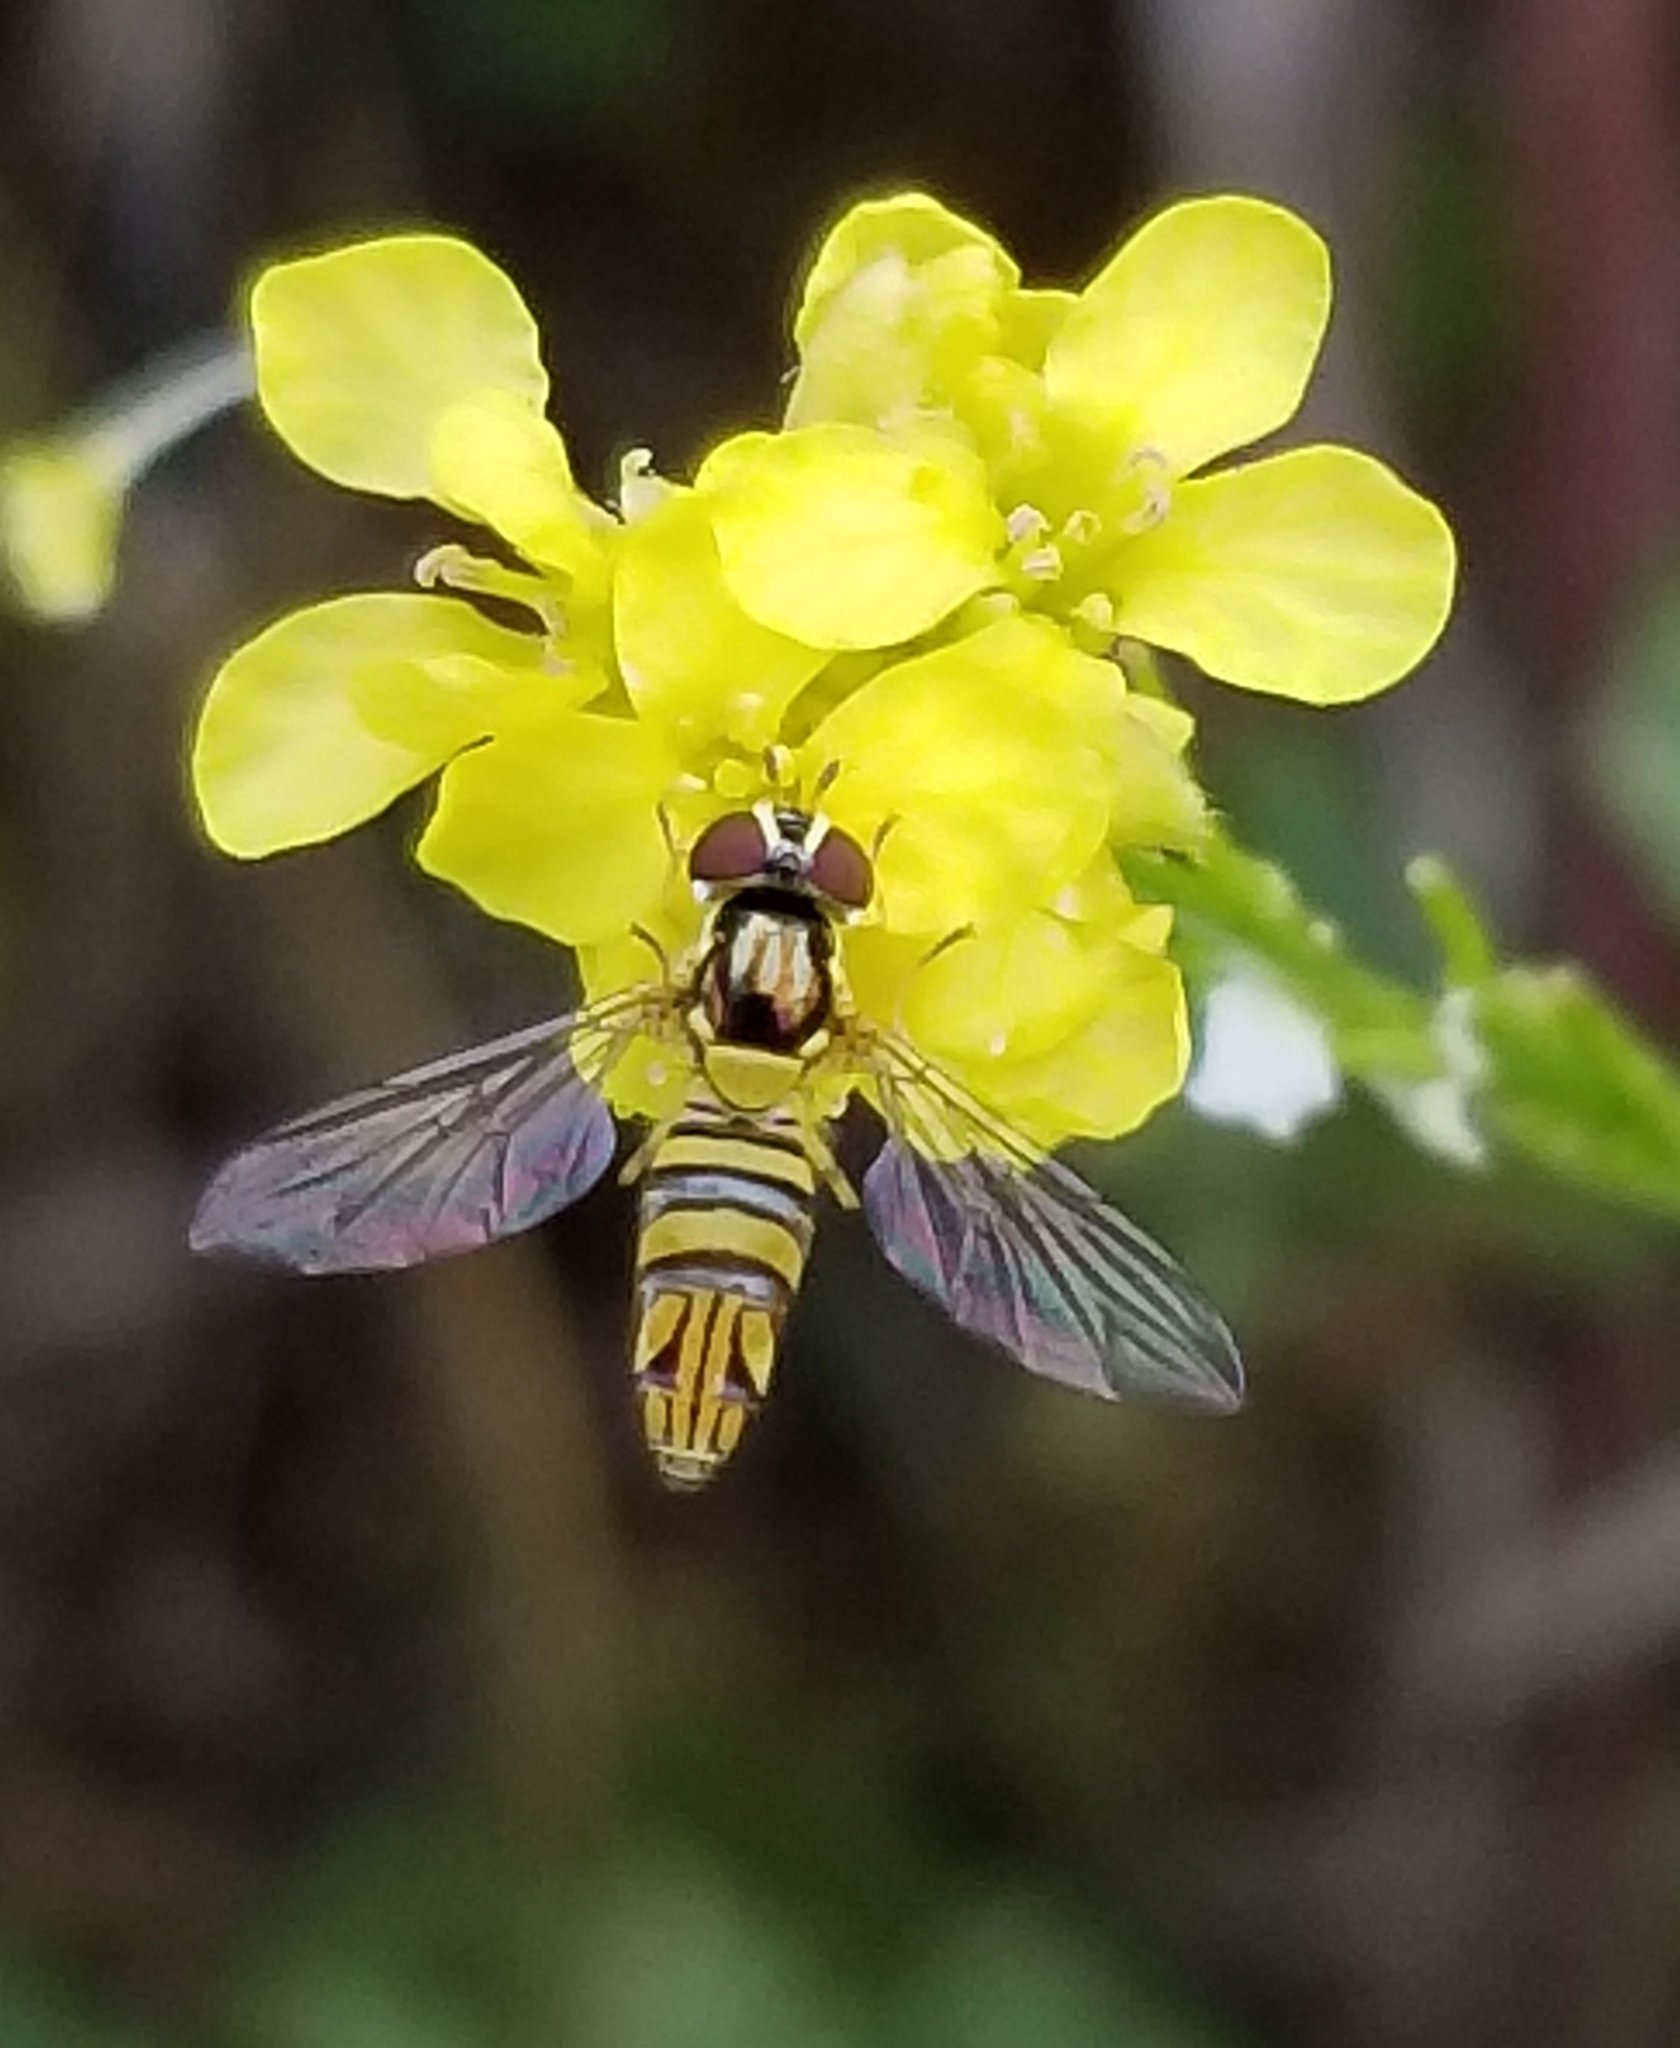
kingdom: Animalia
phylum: Arthropoda
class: Insecta
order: Diptera
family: Syrphidae
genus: Allograpta
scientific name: Allograpta obliqua
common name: Common oblique syrphid
